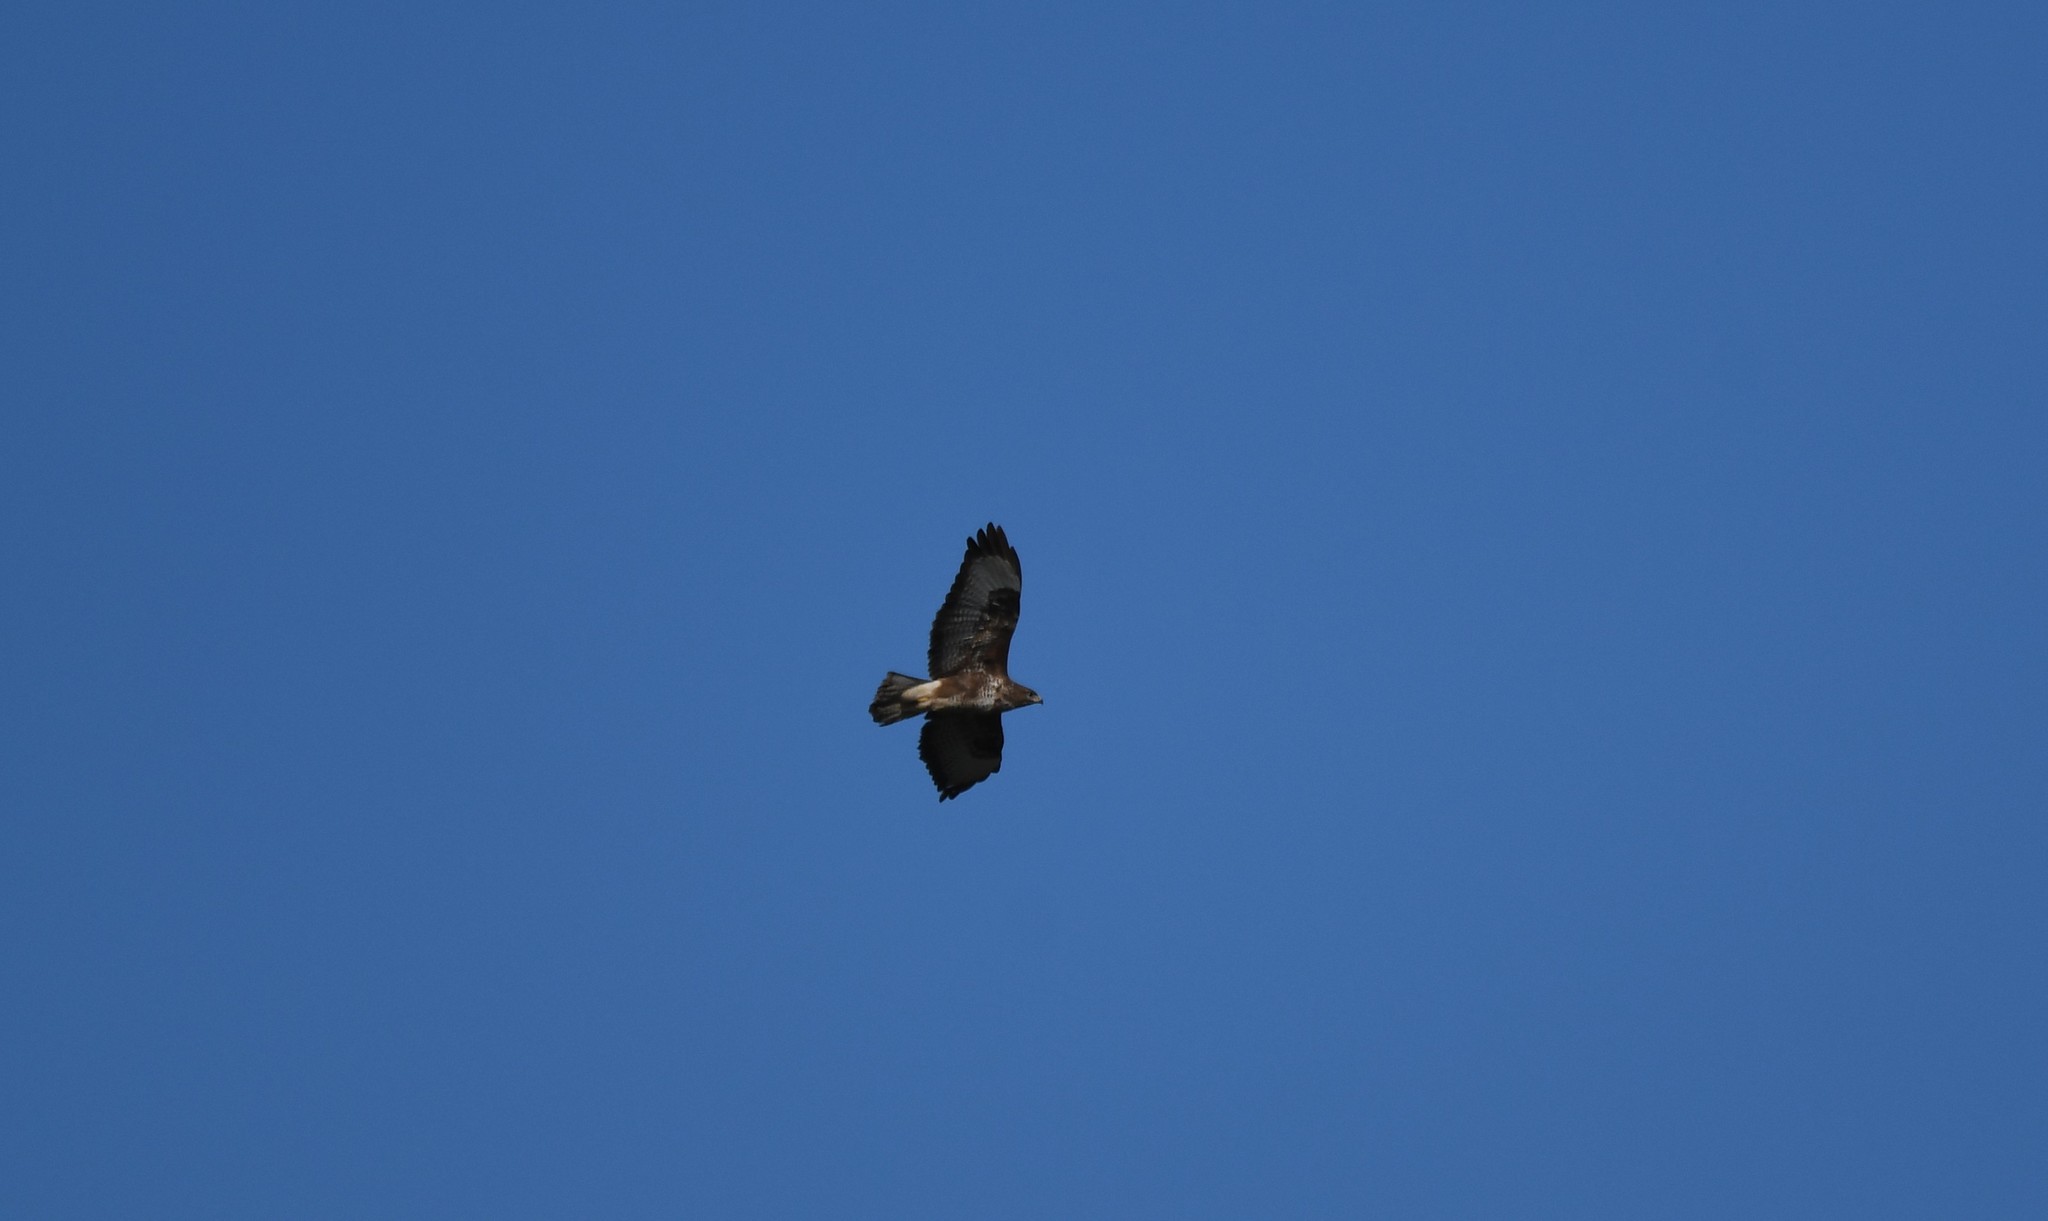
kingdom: Animalia
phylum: Chordata
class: Aves
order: Accipitriformes
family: Accipitridae
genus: Buteo
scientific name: Buteo buteo
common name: Common buzzard
